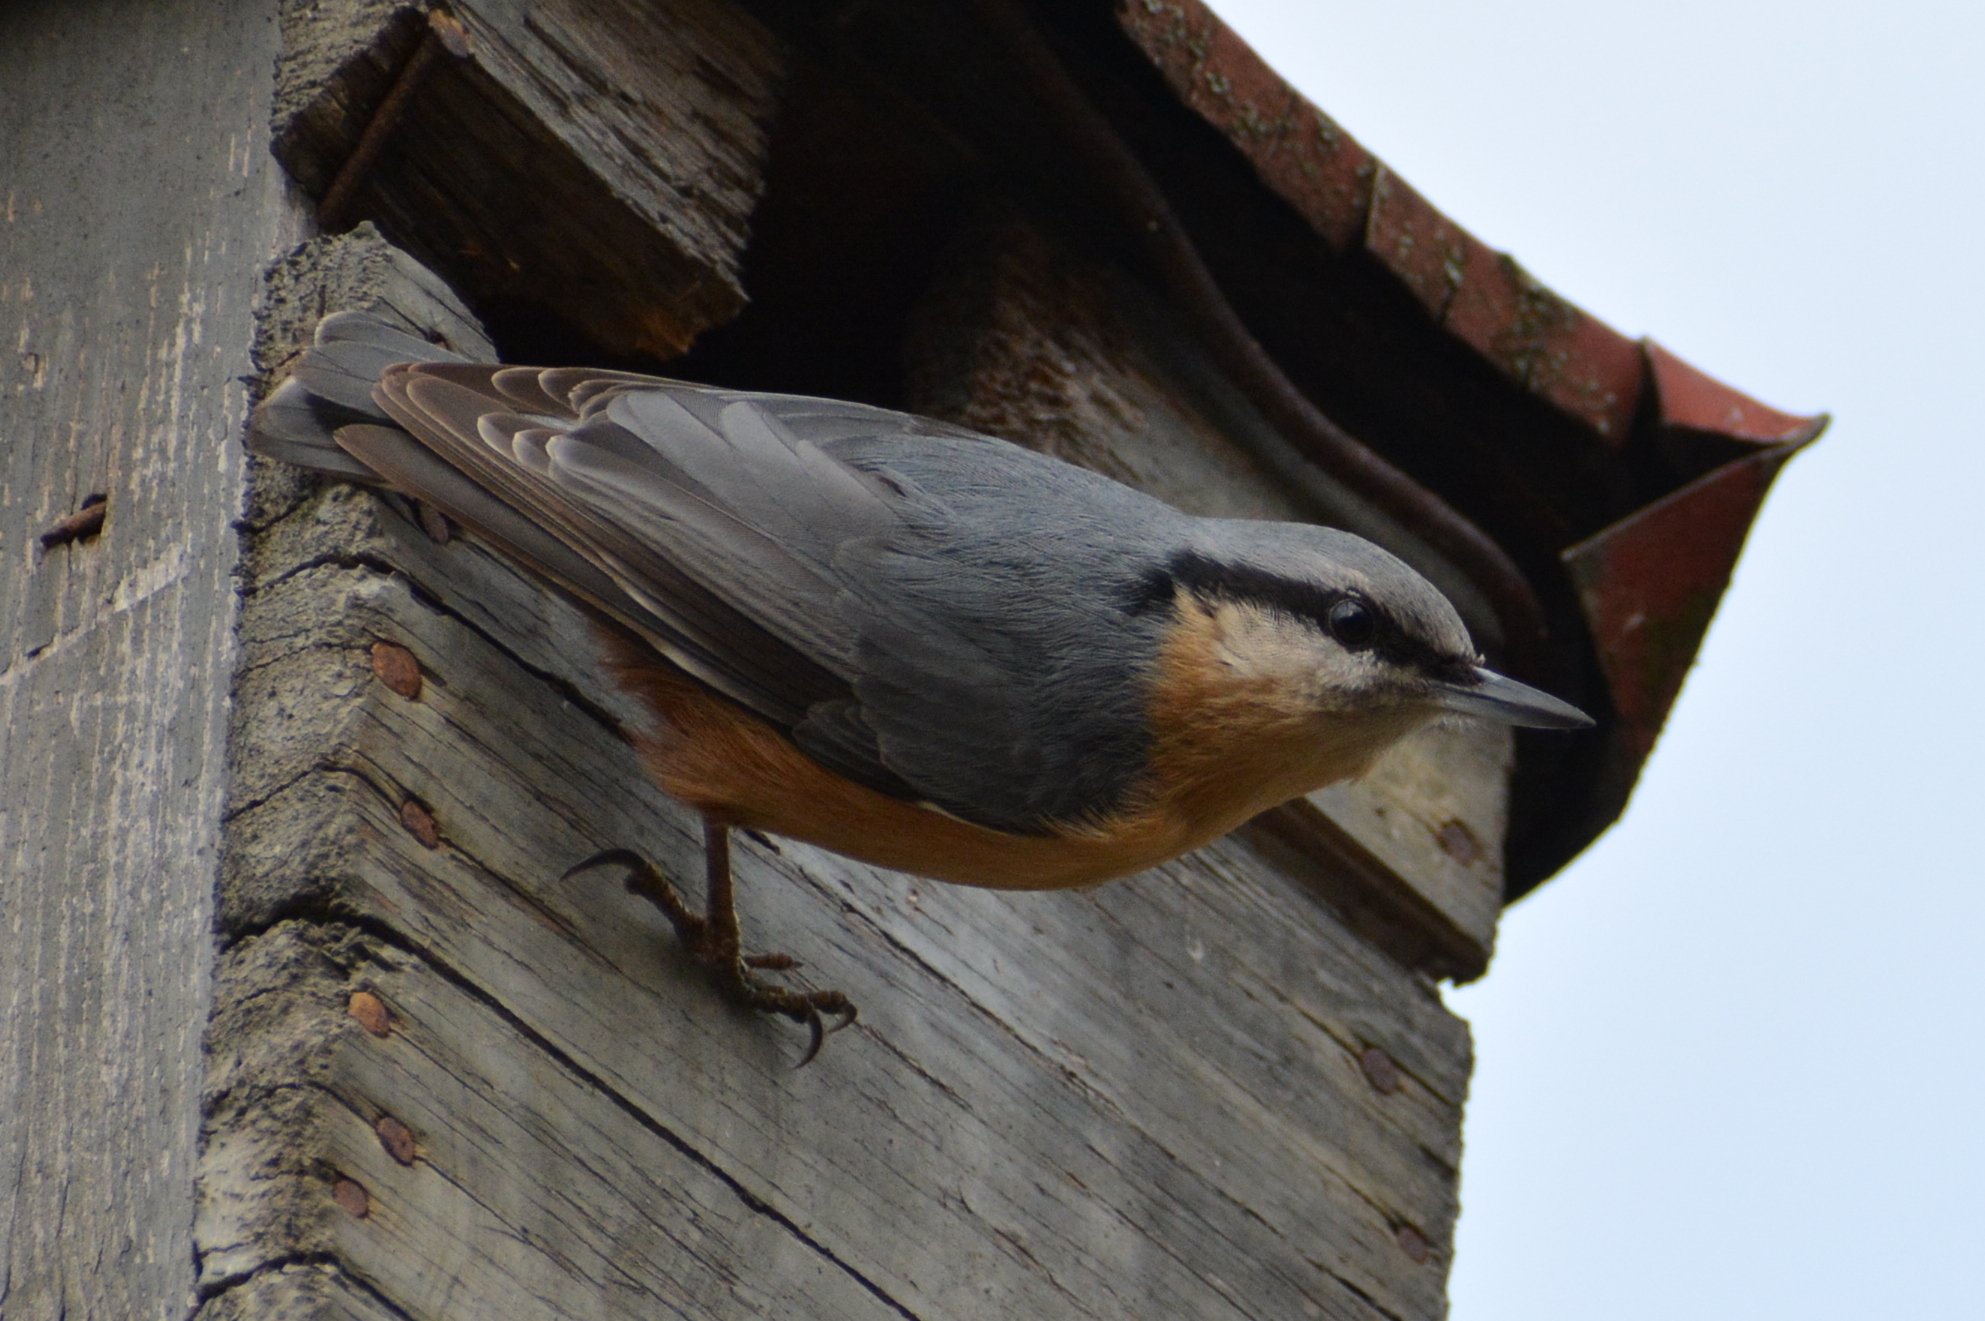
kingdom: Animalia
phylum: Chordata
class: Aves
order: Passeriformes
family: Sittidae
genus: Sitta
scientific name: Sitta europaea
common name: Eurasian nuthatch
